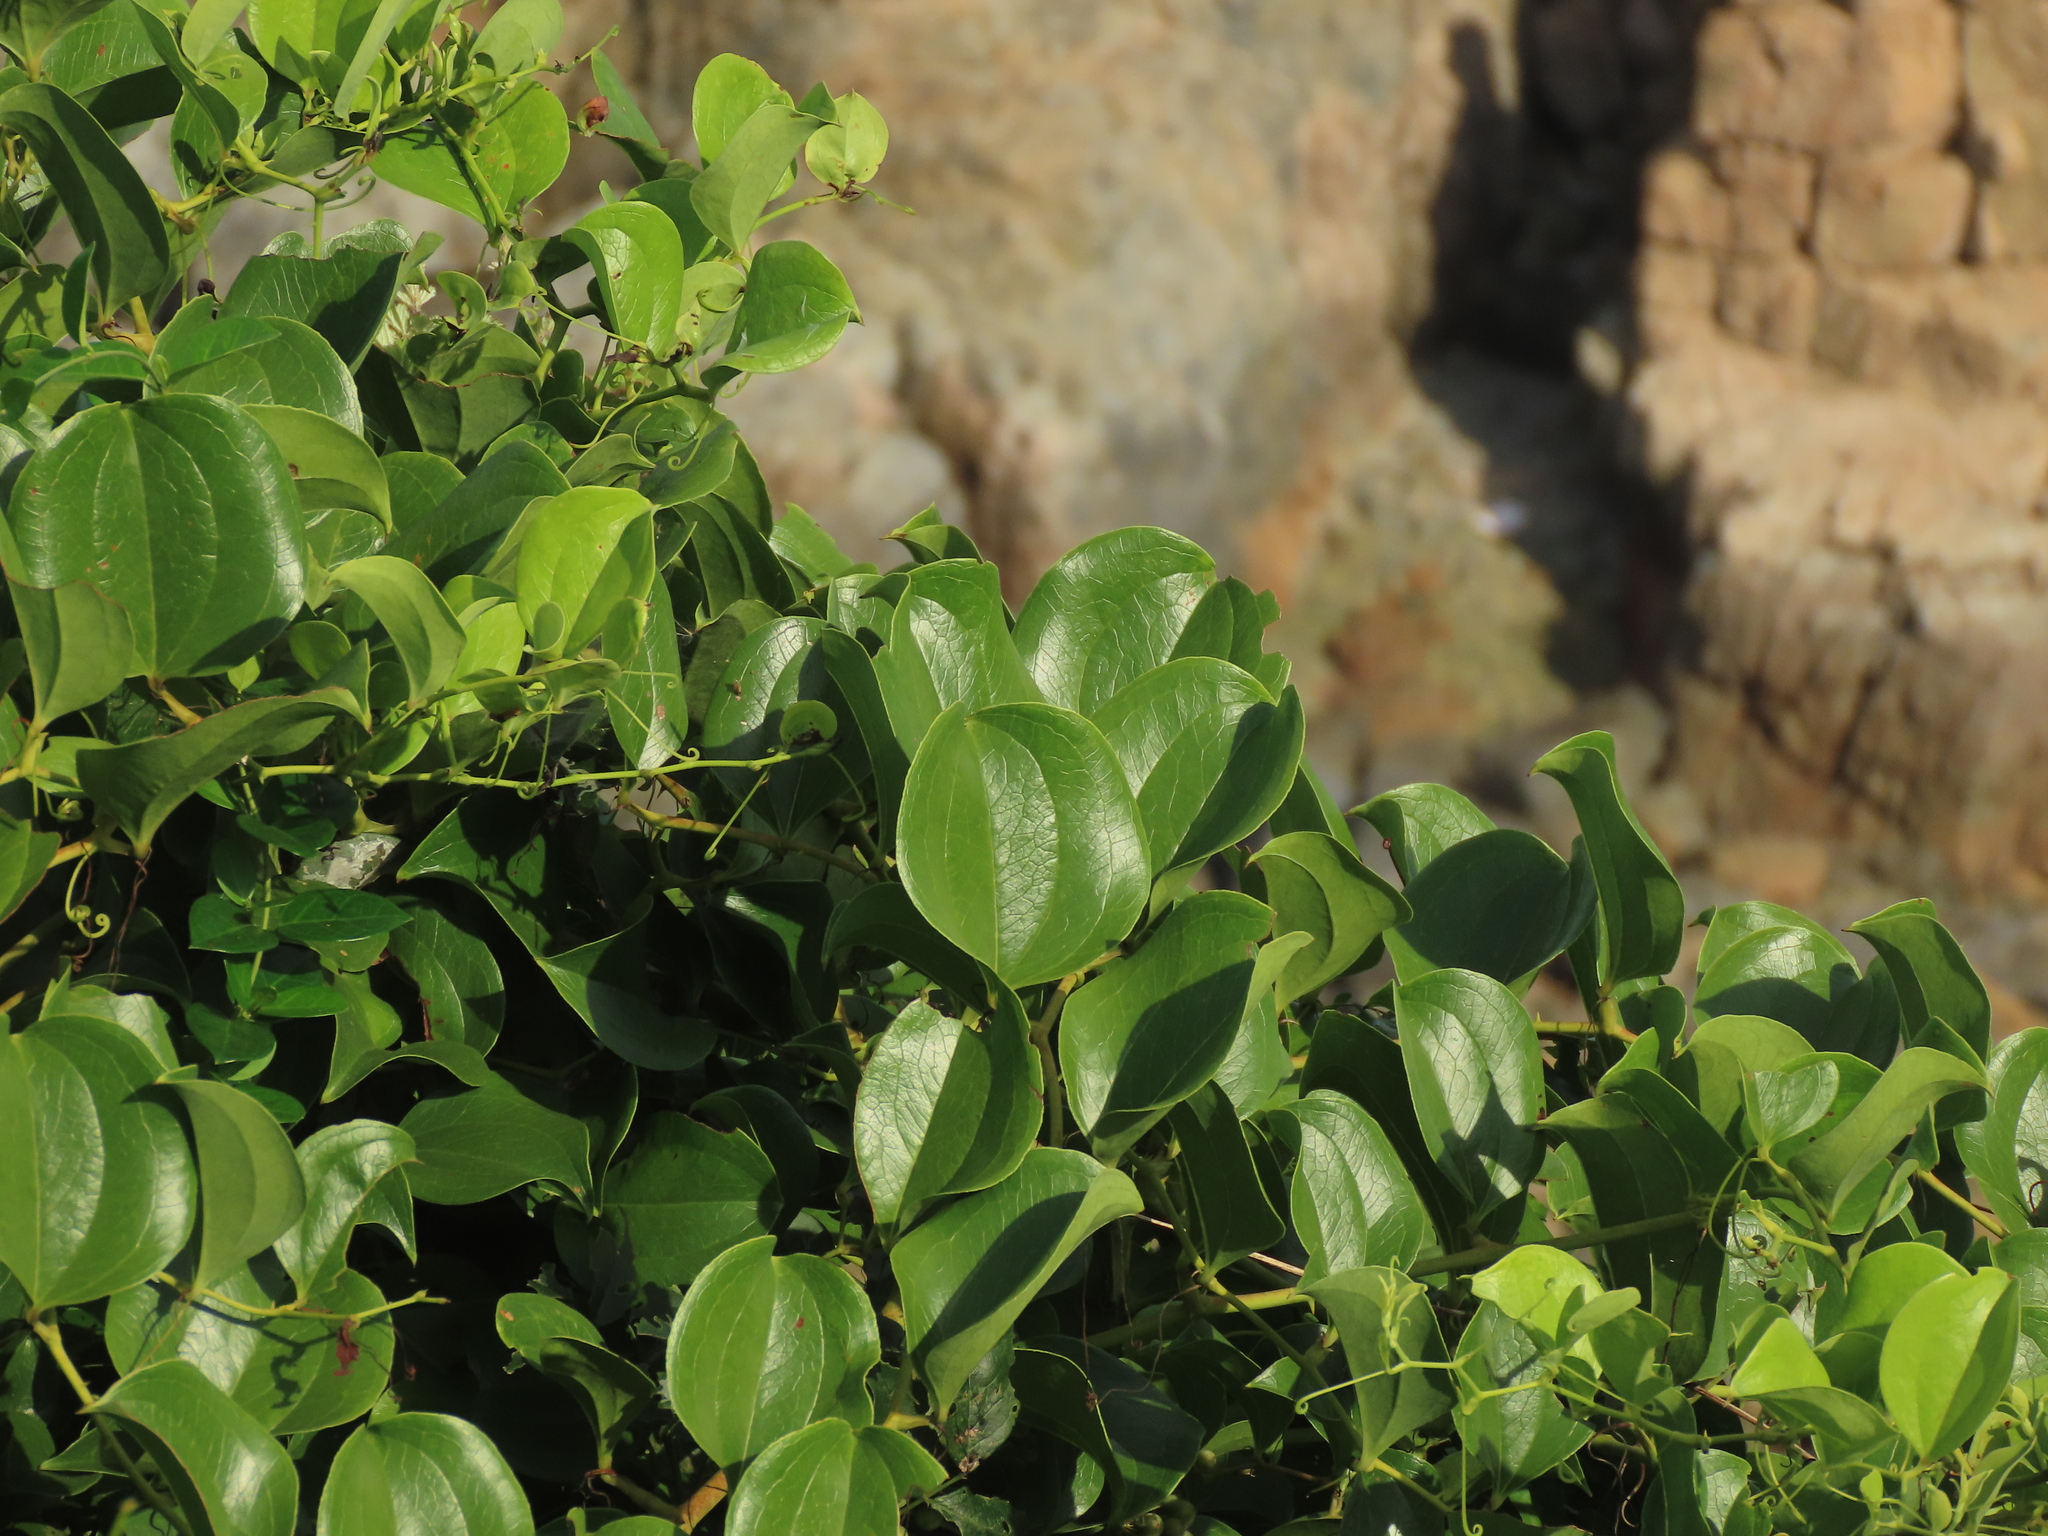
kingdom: Plantae
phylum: Tracheophyta
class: Liliopsida
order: Liliales
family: Smilacaceae
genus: Smilax
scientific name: Smilax china
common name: Chinaroot
